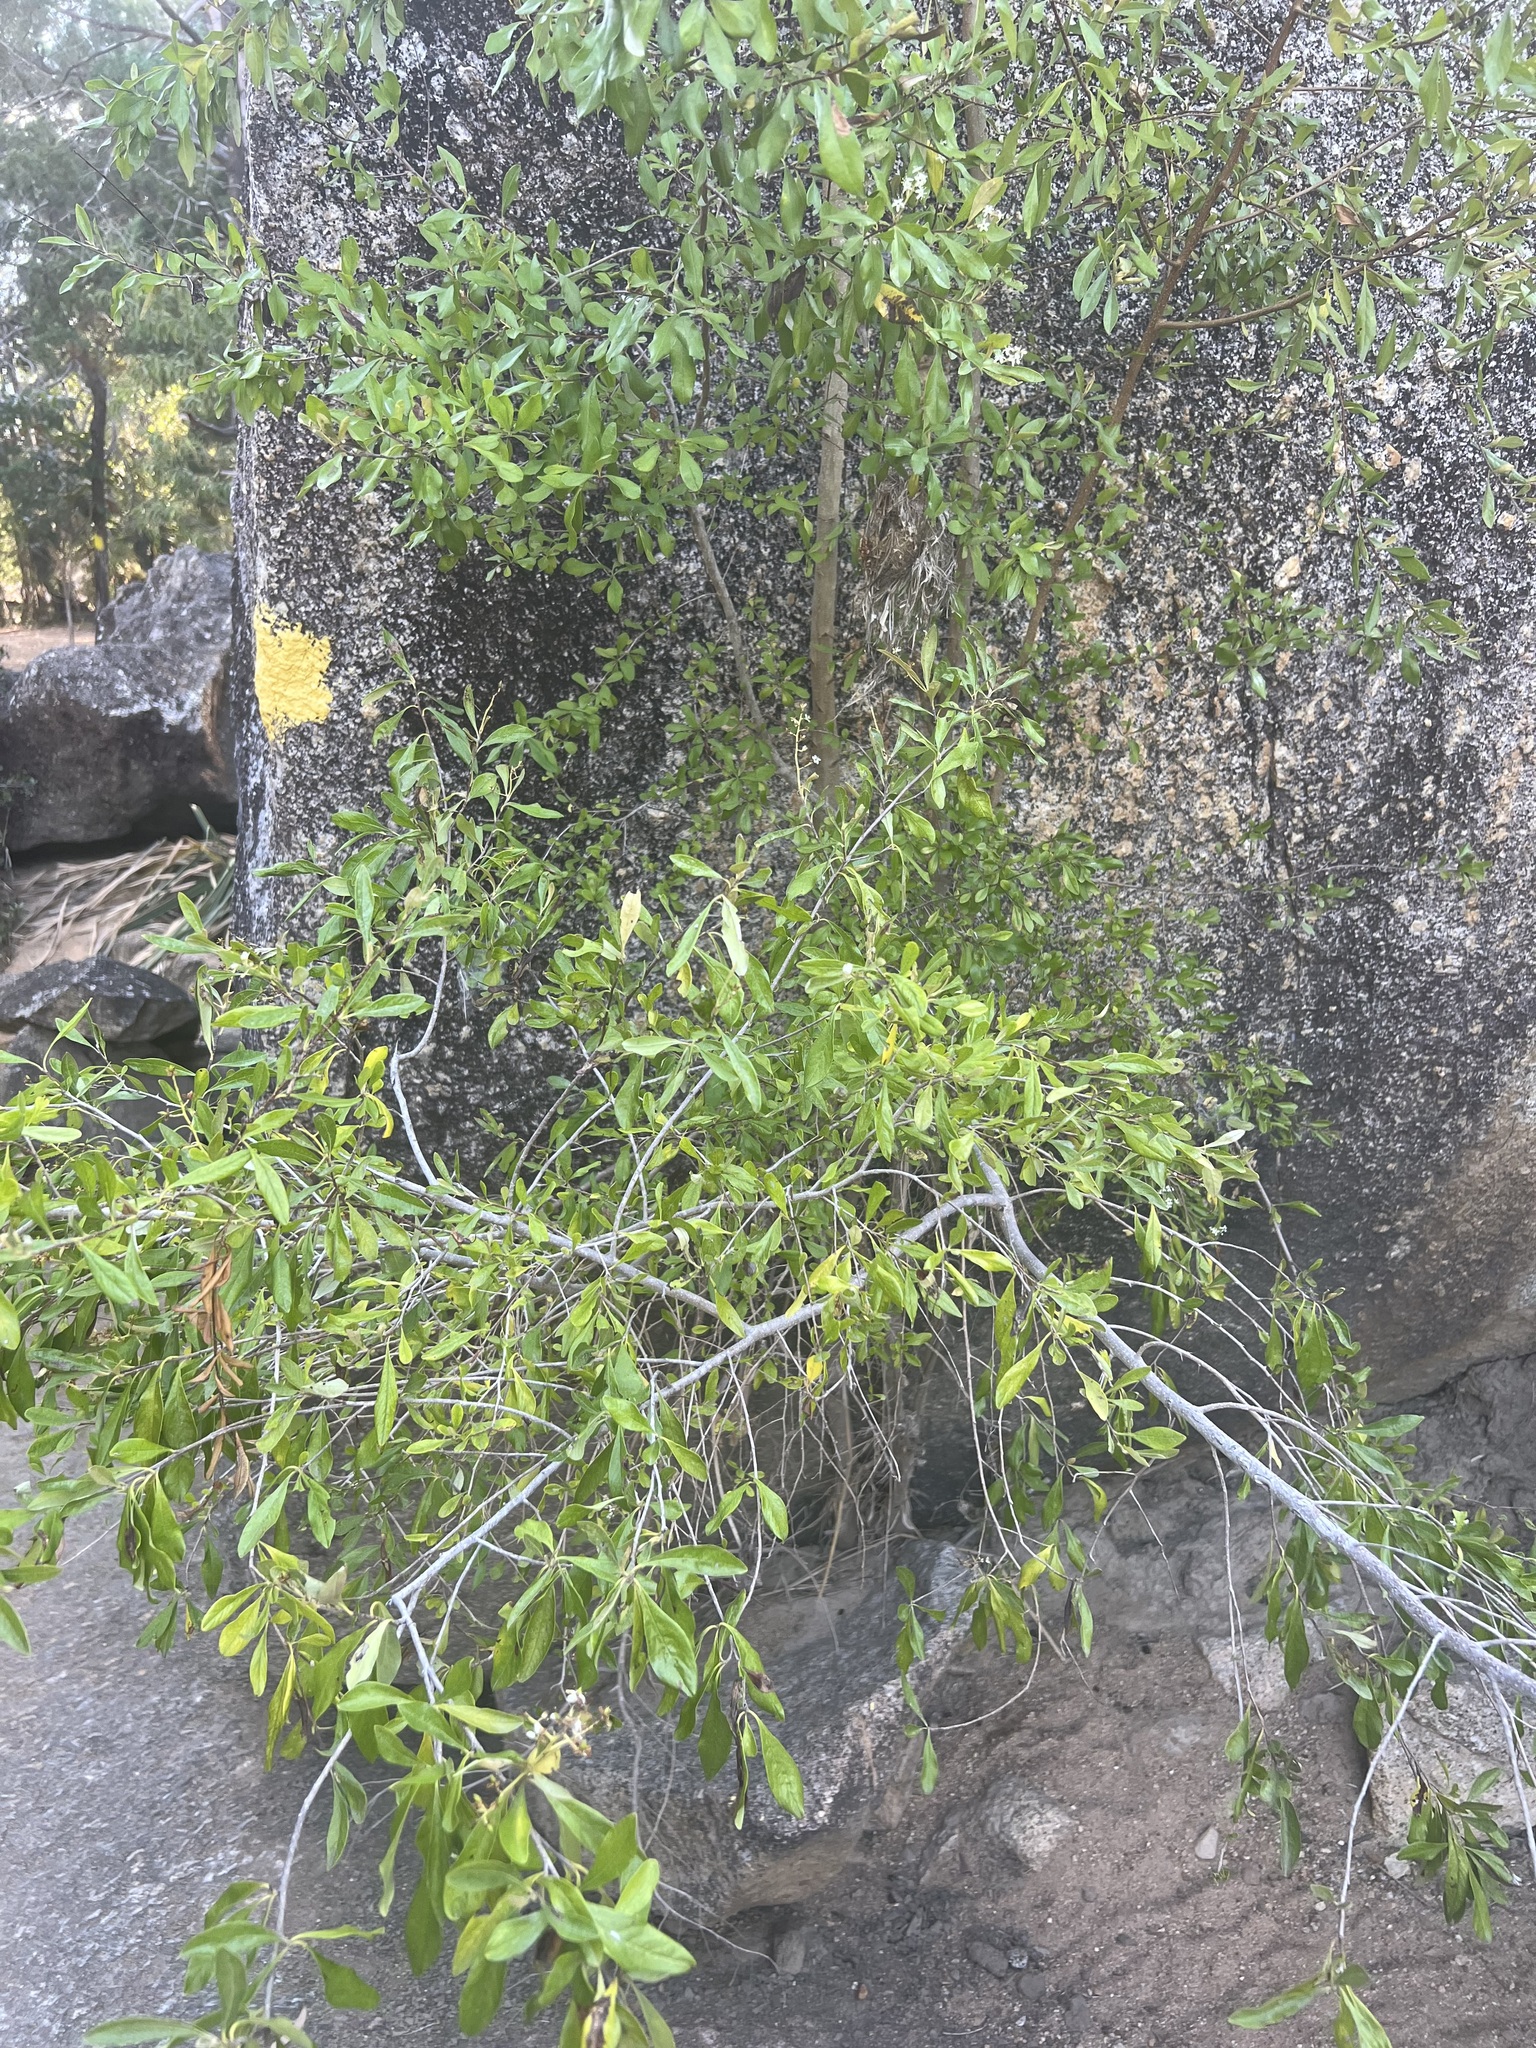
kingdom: Plantae
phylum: Tracheophyta
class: Magnoliopsida
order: Apiales
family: Pittosporaceae
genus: Bursaria
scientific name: Bursaria tenuifolia
